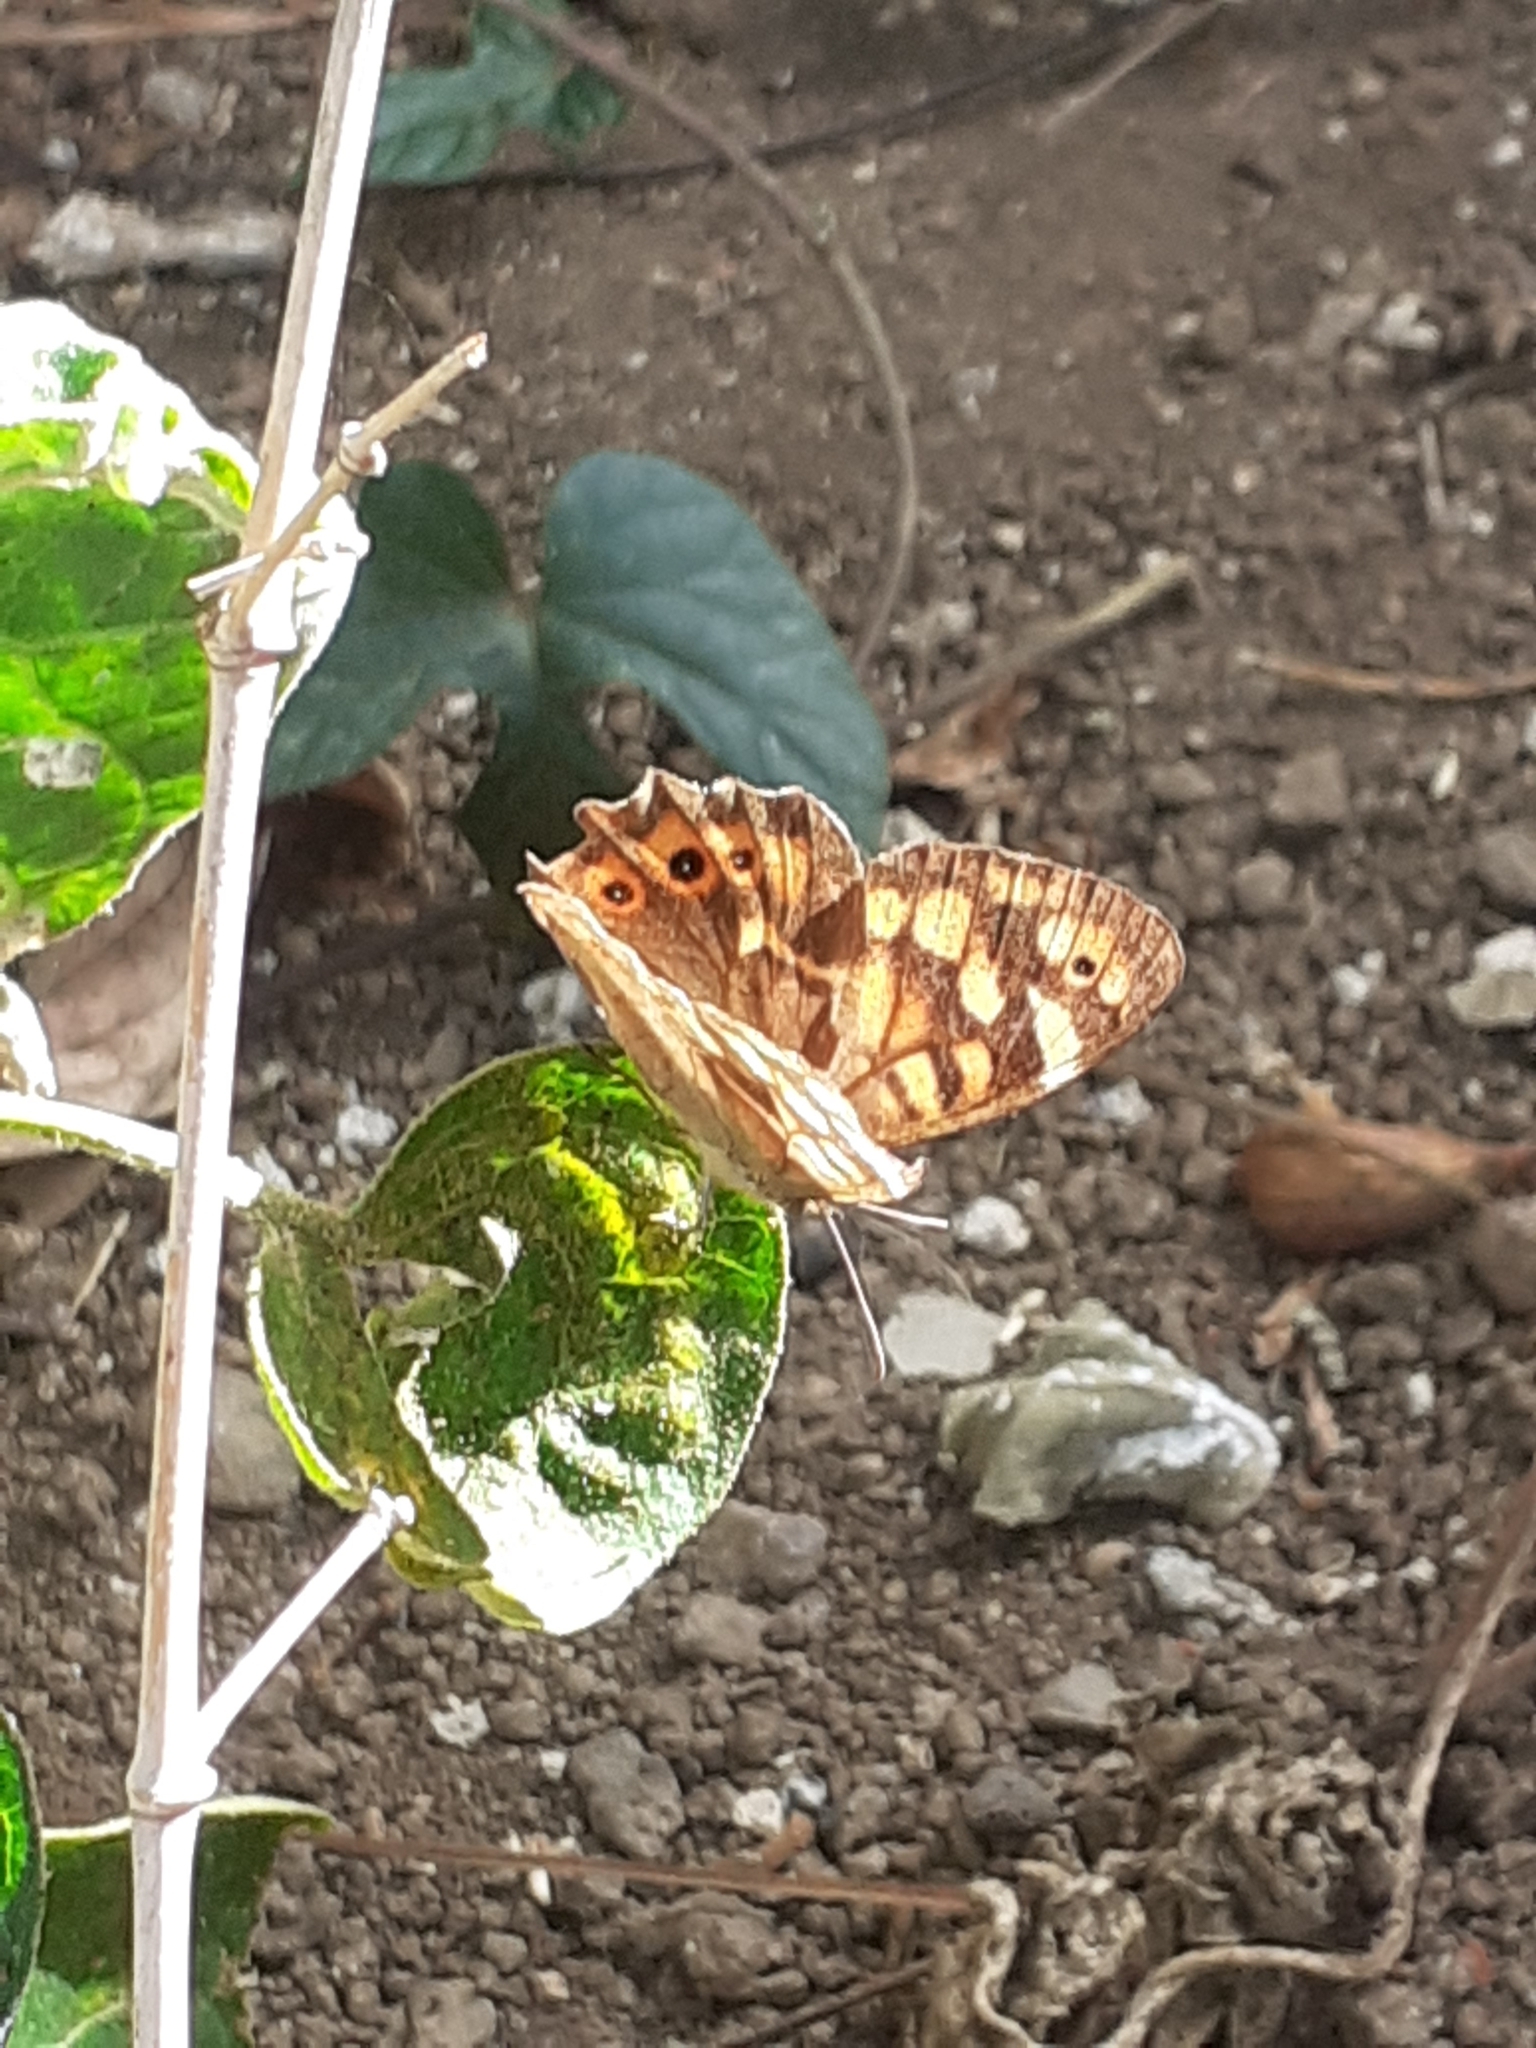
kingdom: Animalia
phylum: Arthropoda
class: Insecta
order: Lepidoptera
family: Nymphalidae
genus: Pararge
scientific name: Pararge aegeria
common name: Speckled wood
